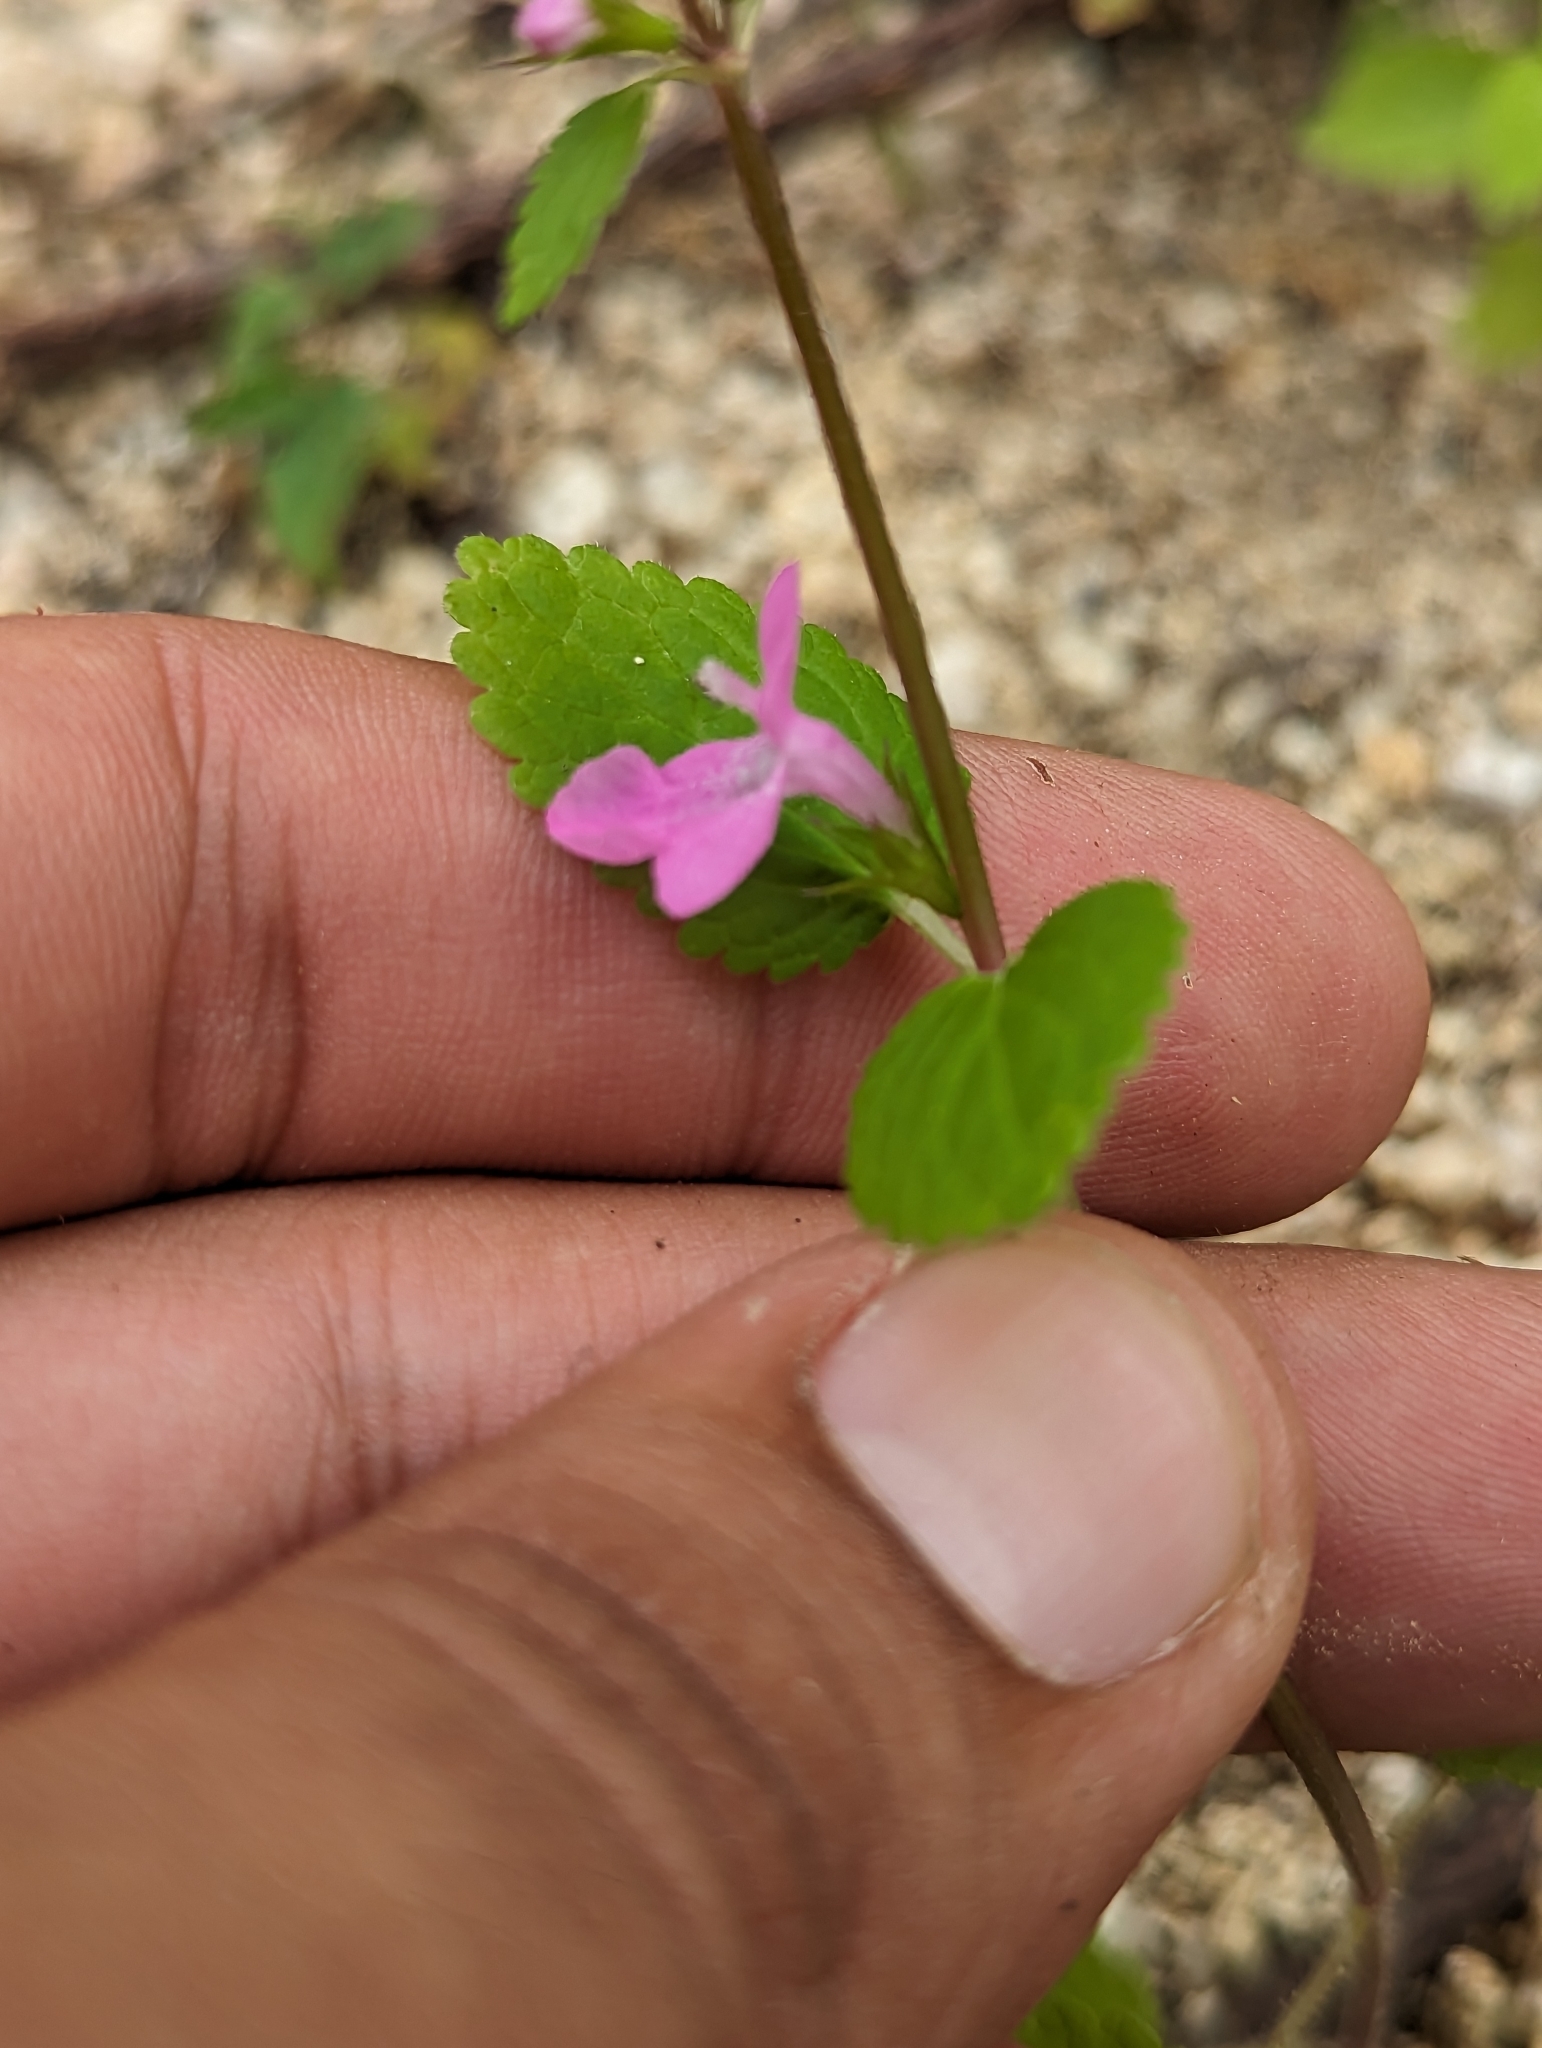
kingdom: Plantae
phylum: Tracheophyta
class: Magnoliopsida
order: Lamiales
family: Lamiaceae
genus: Stachys
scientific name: Stachys tenerrima
